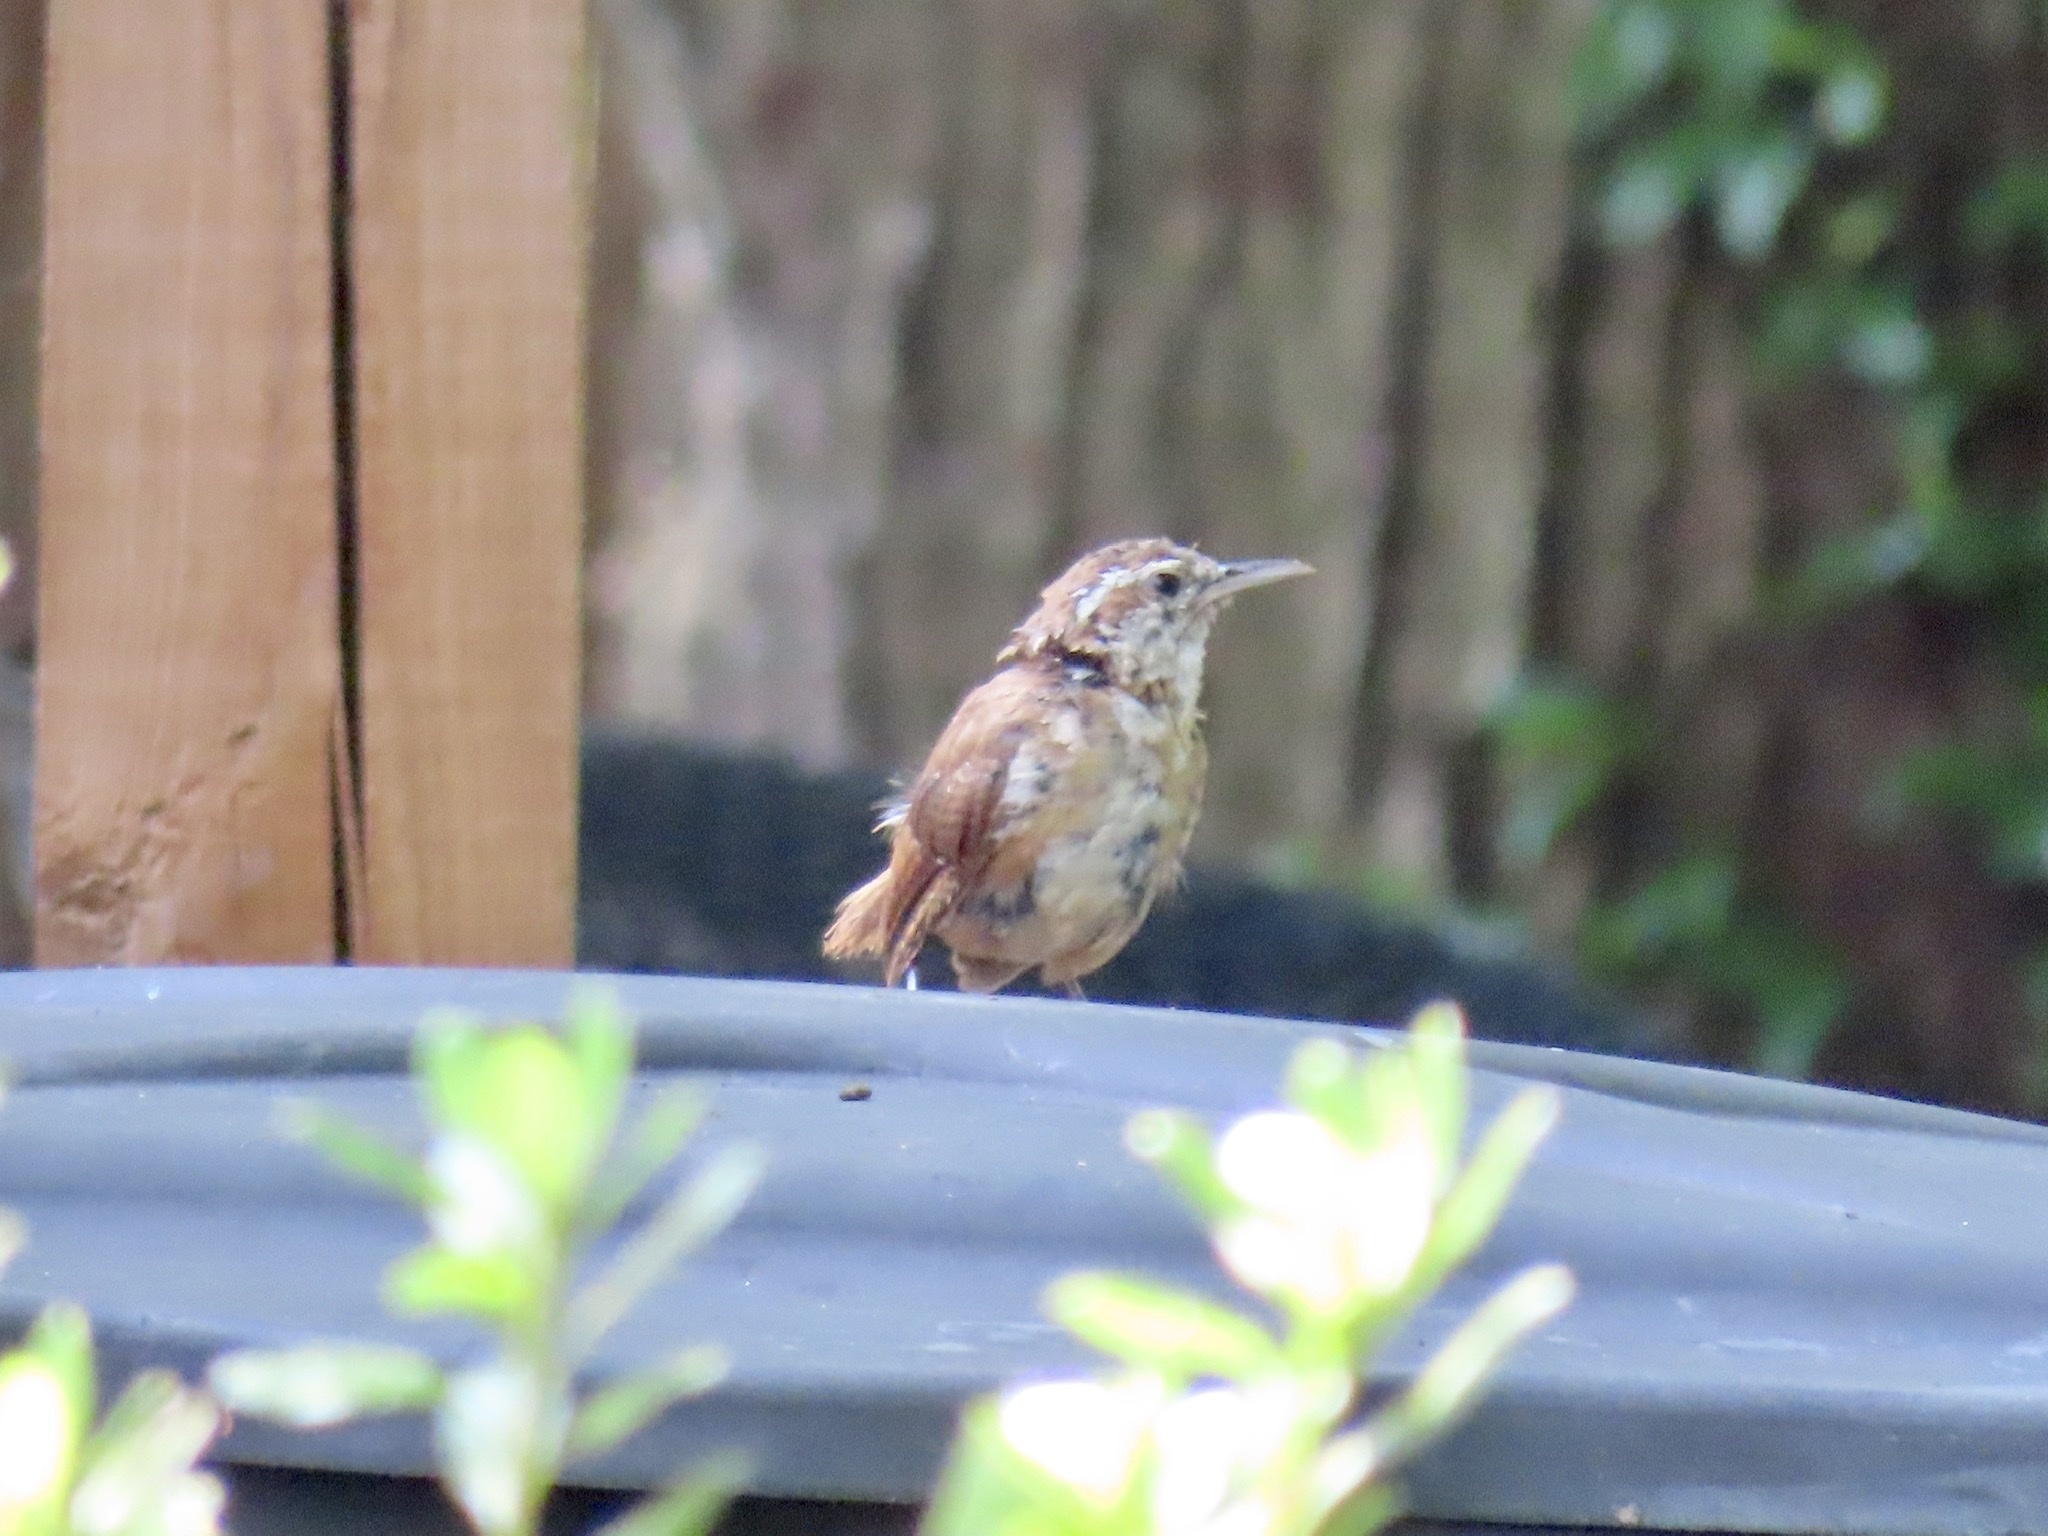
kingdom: Animalia
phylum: Chordata
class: Aves
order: Passeriformes
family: Troglodytidae
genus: Thryothorus
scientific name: Thryothorus ludovicianus
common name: Carolina wren
